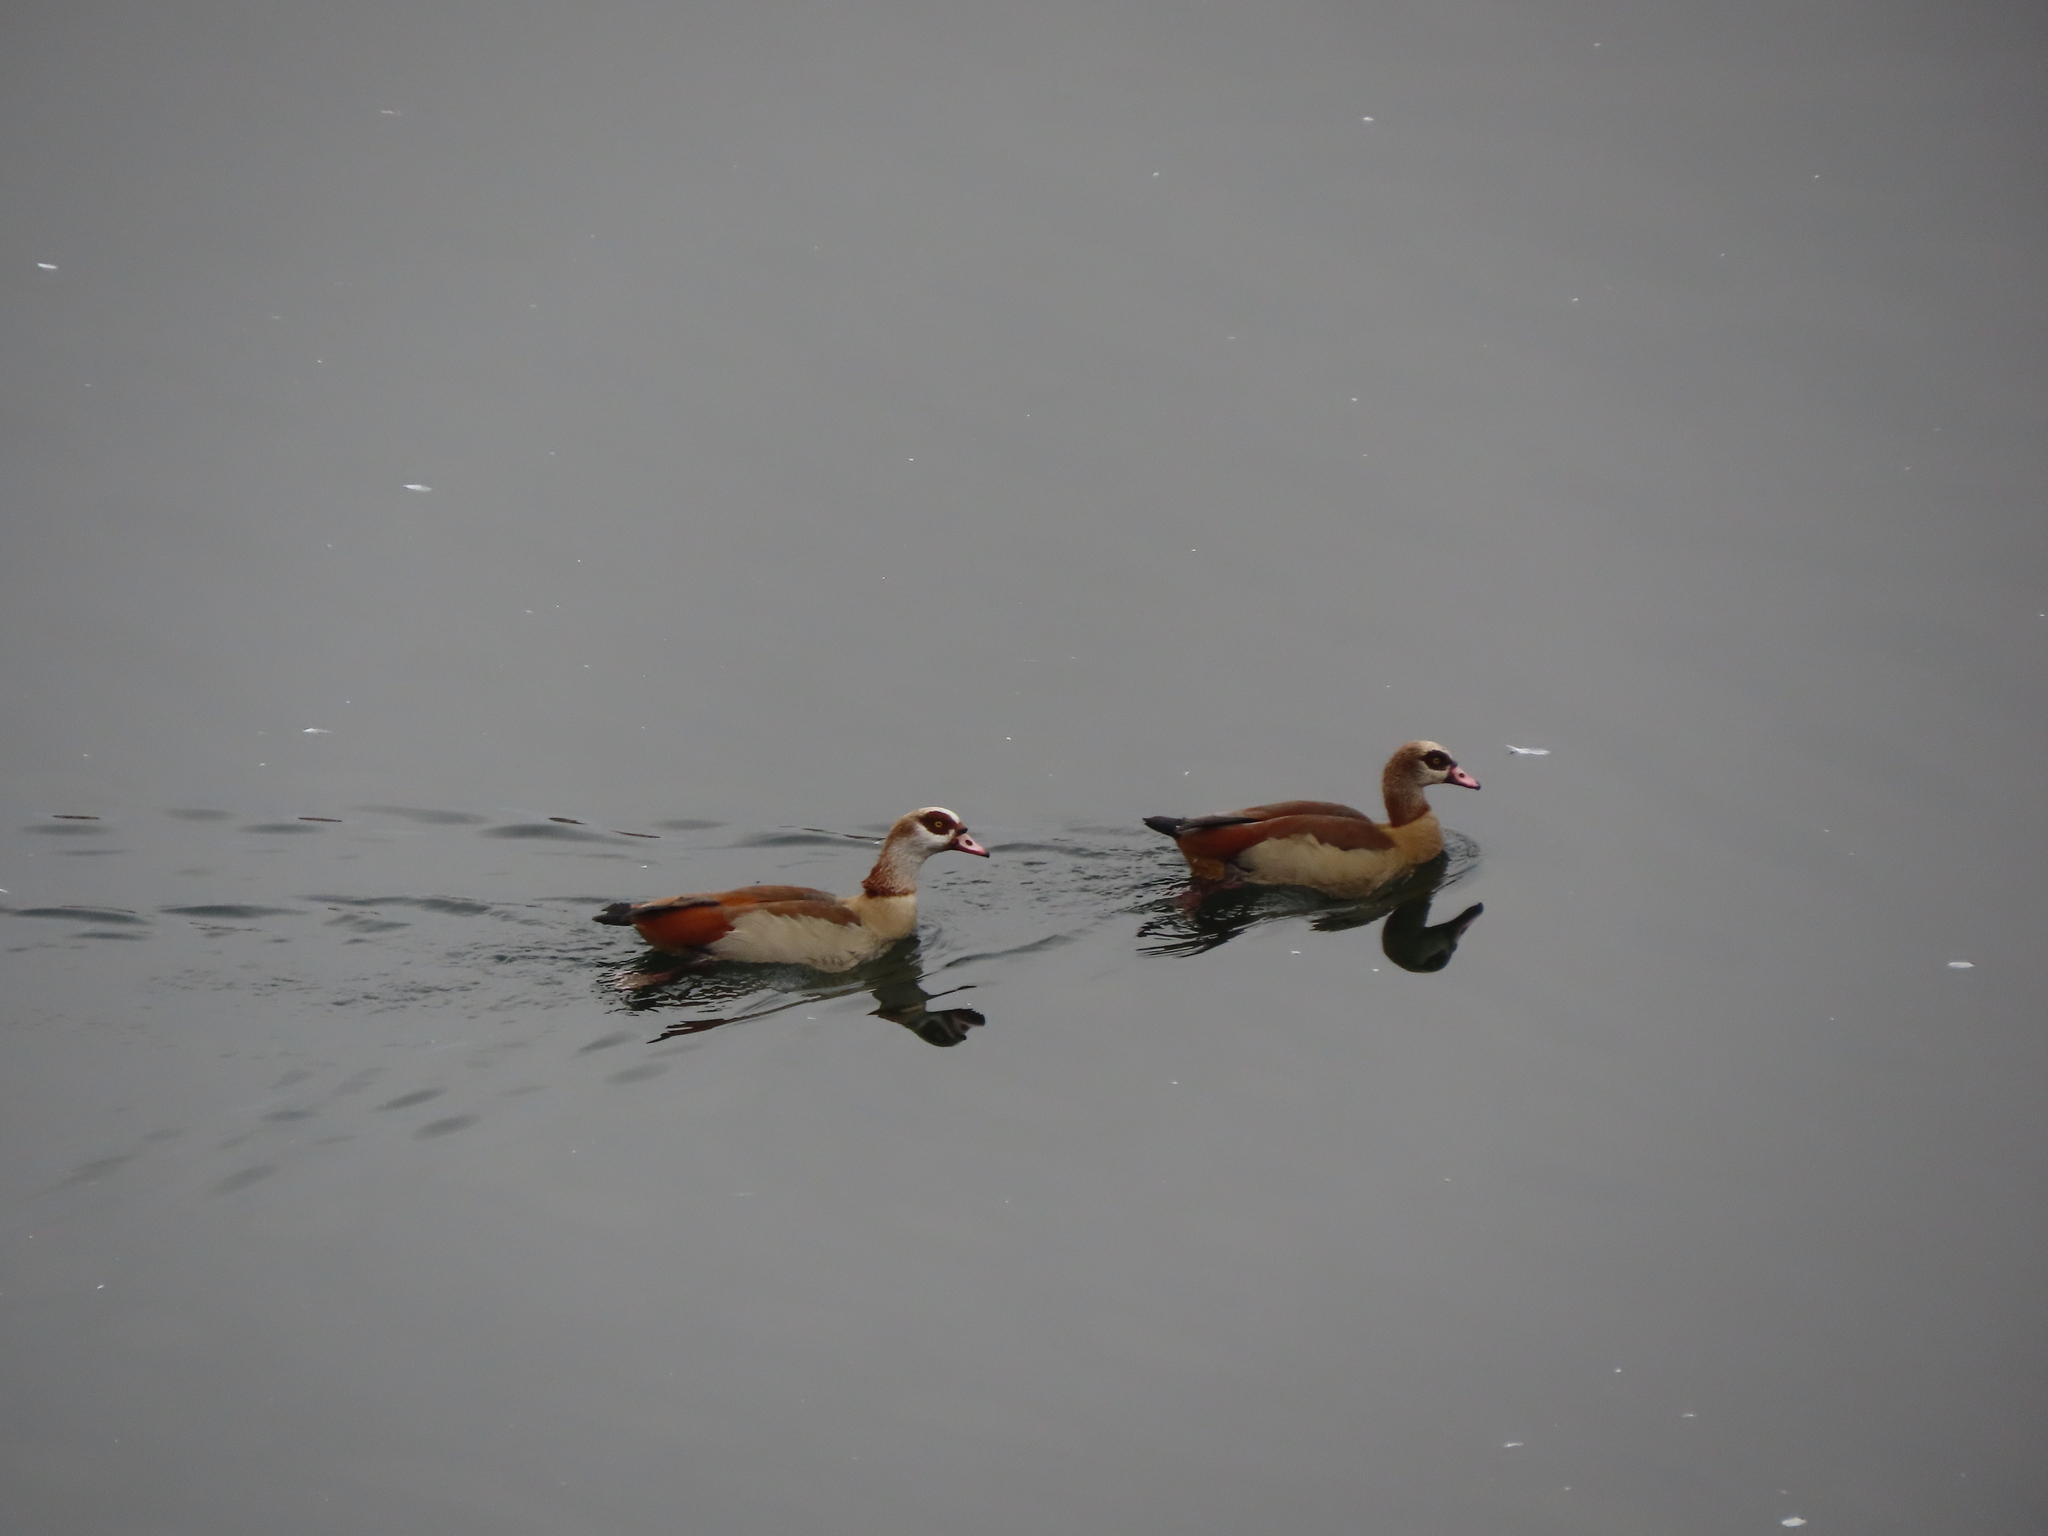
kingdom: Animalia
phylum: Chordata
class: Aves
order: Anseriformes
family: Anatidae
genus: Alopochen
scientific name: Alopochen aegyptiaca
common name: Egyptian goose
